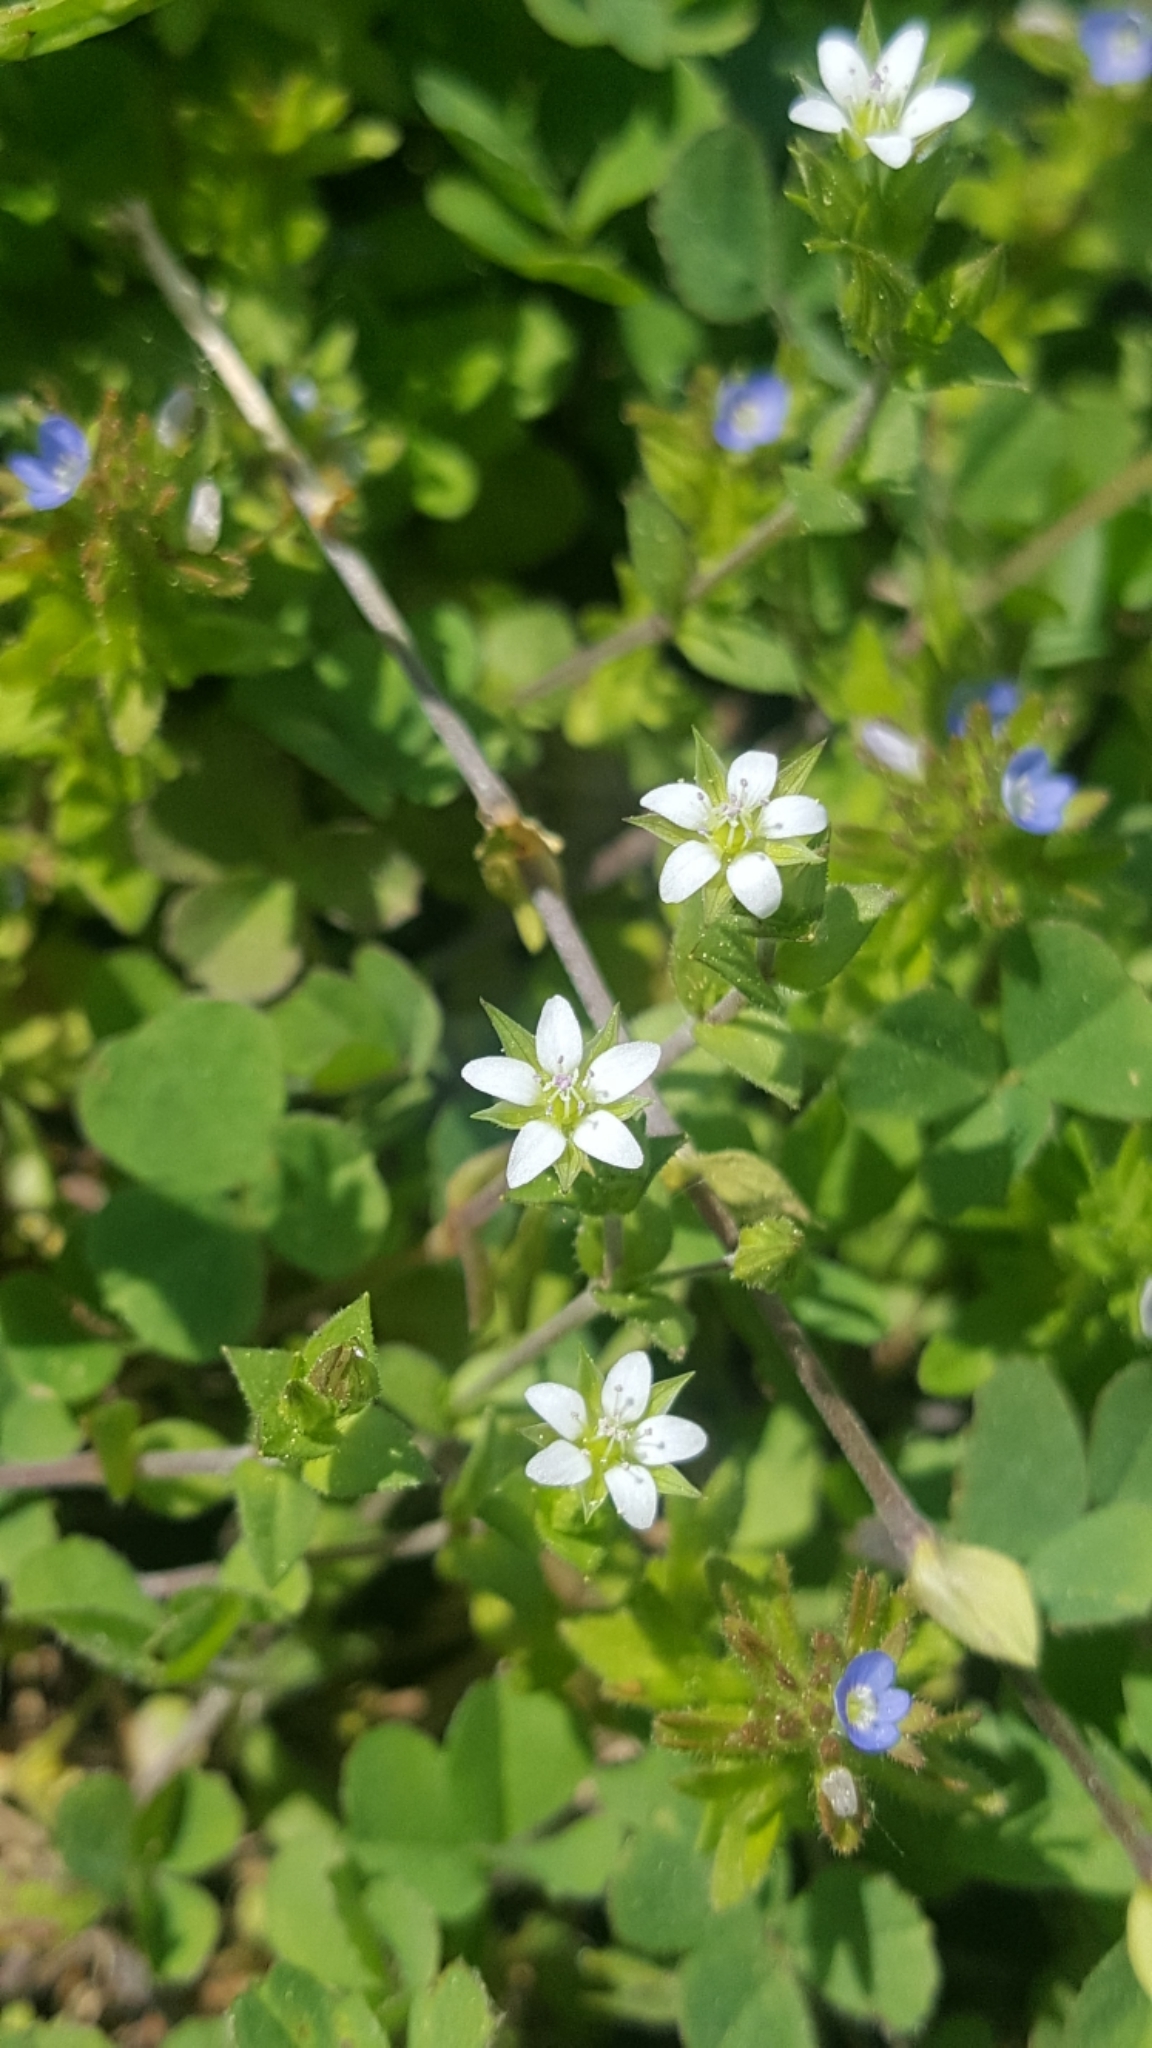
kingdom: Plantae
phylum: Tracheophyta
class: Magnoliopsida
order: Caryophyllales
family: Caryophyllaceae
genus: Arenaria
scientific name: Arenaria serpyllifolia
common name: Thyme-leaved sandwort
